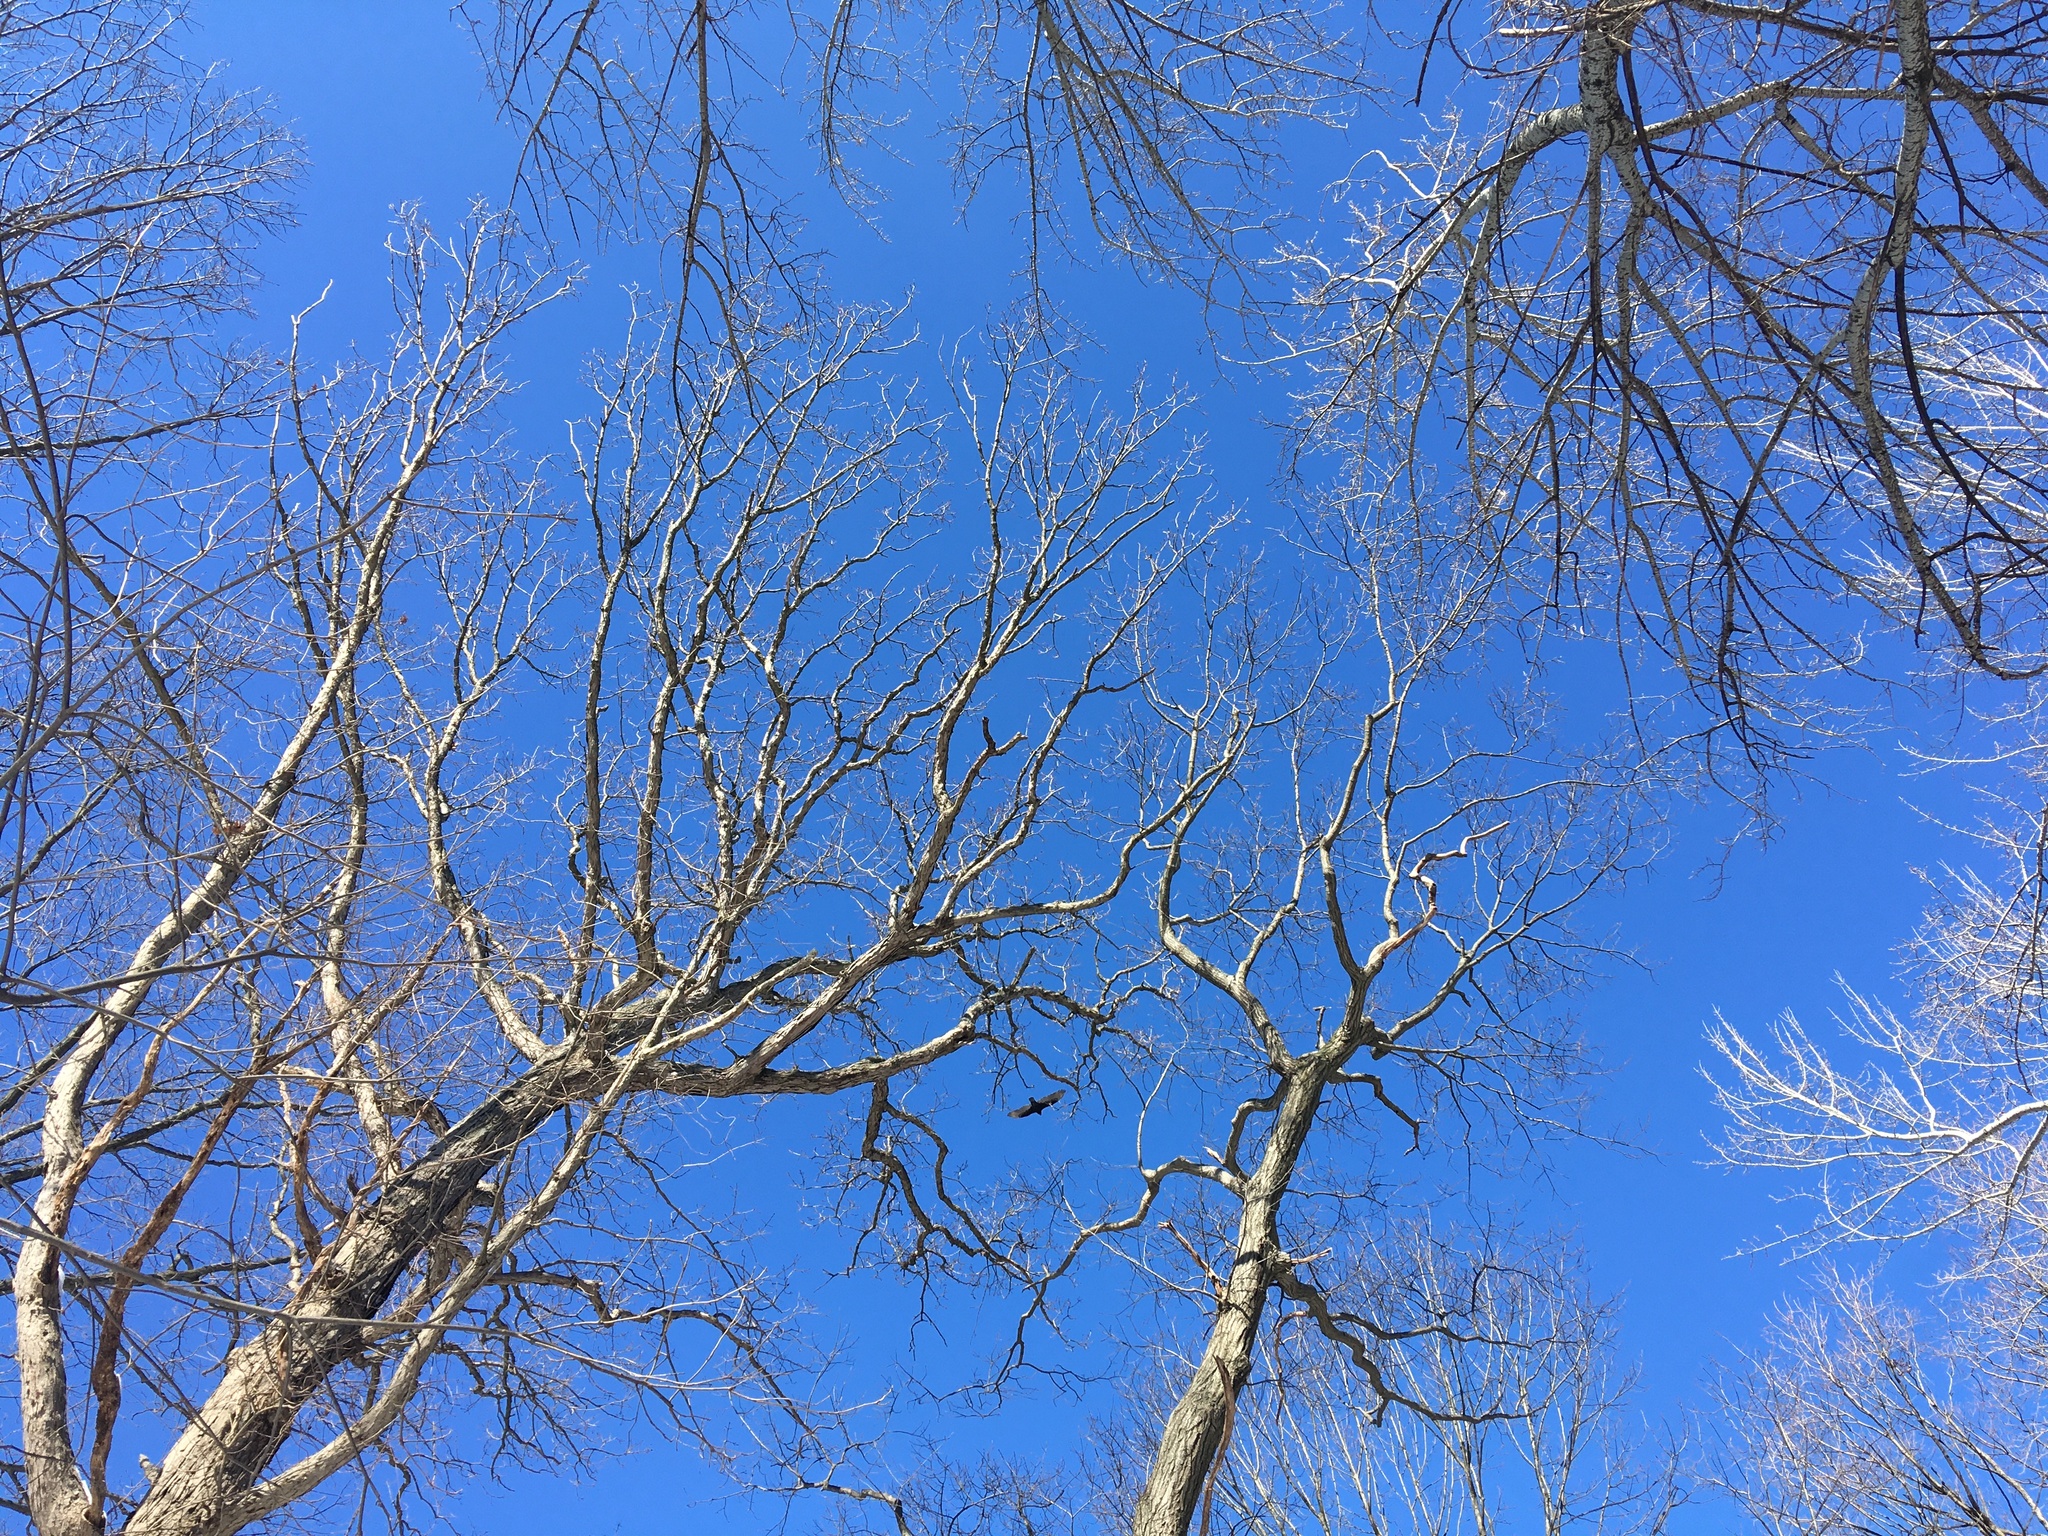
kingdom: Animalia
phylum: Chordata
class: Aves
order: Accipitriformes
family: Cathartidae
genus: Cathartes
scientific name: Cathartes aura
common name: Turkey vulture
